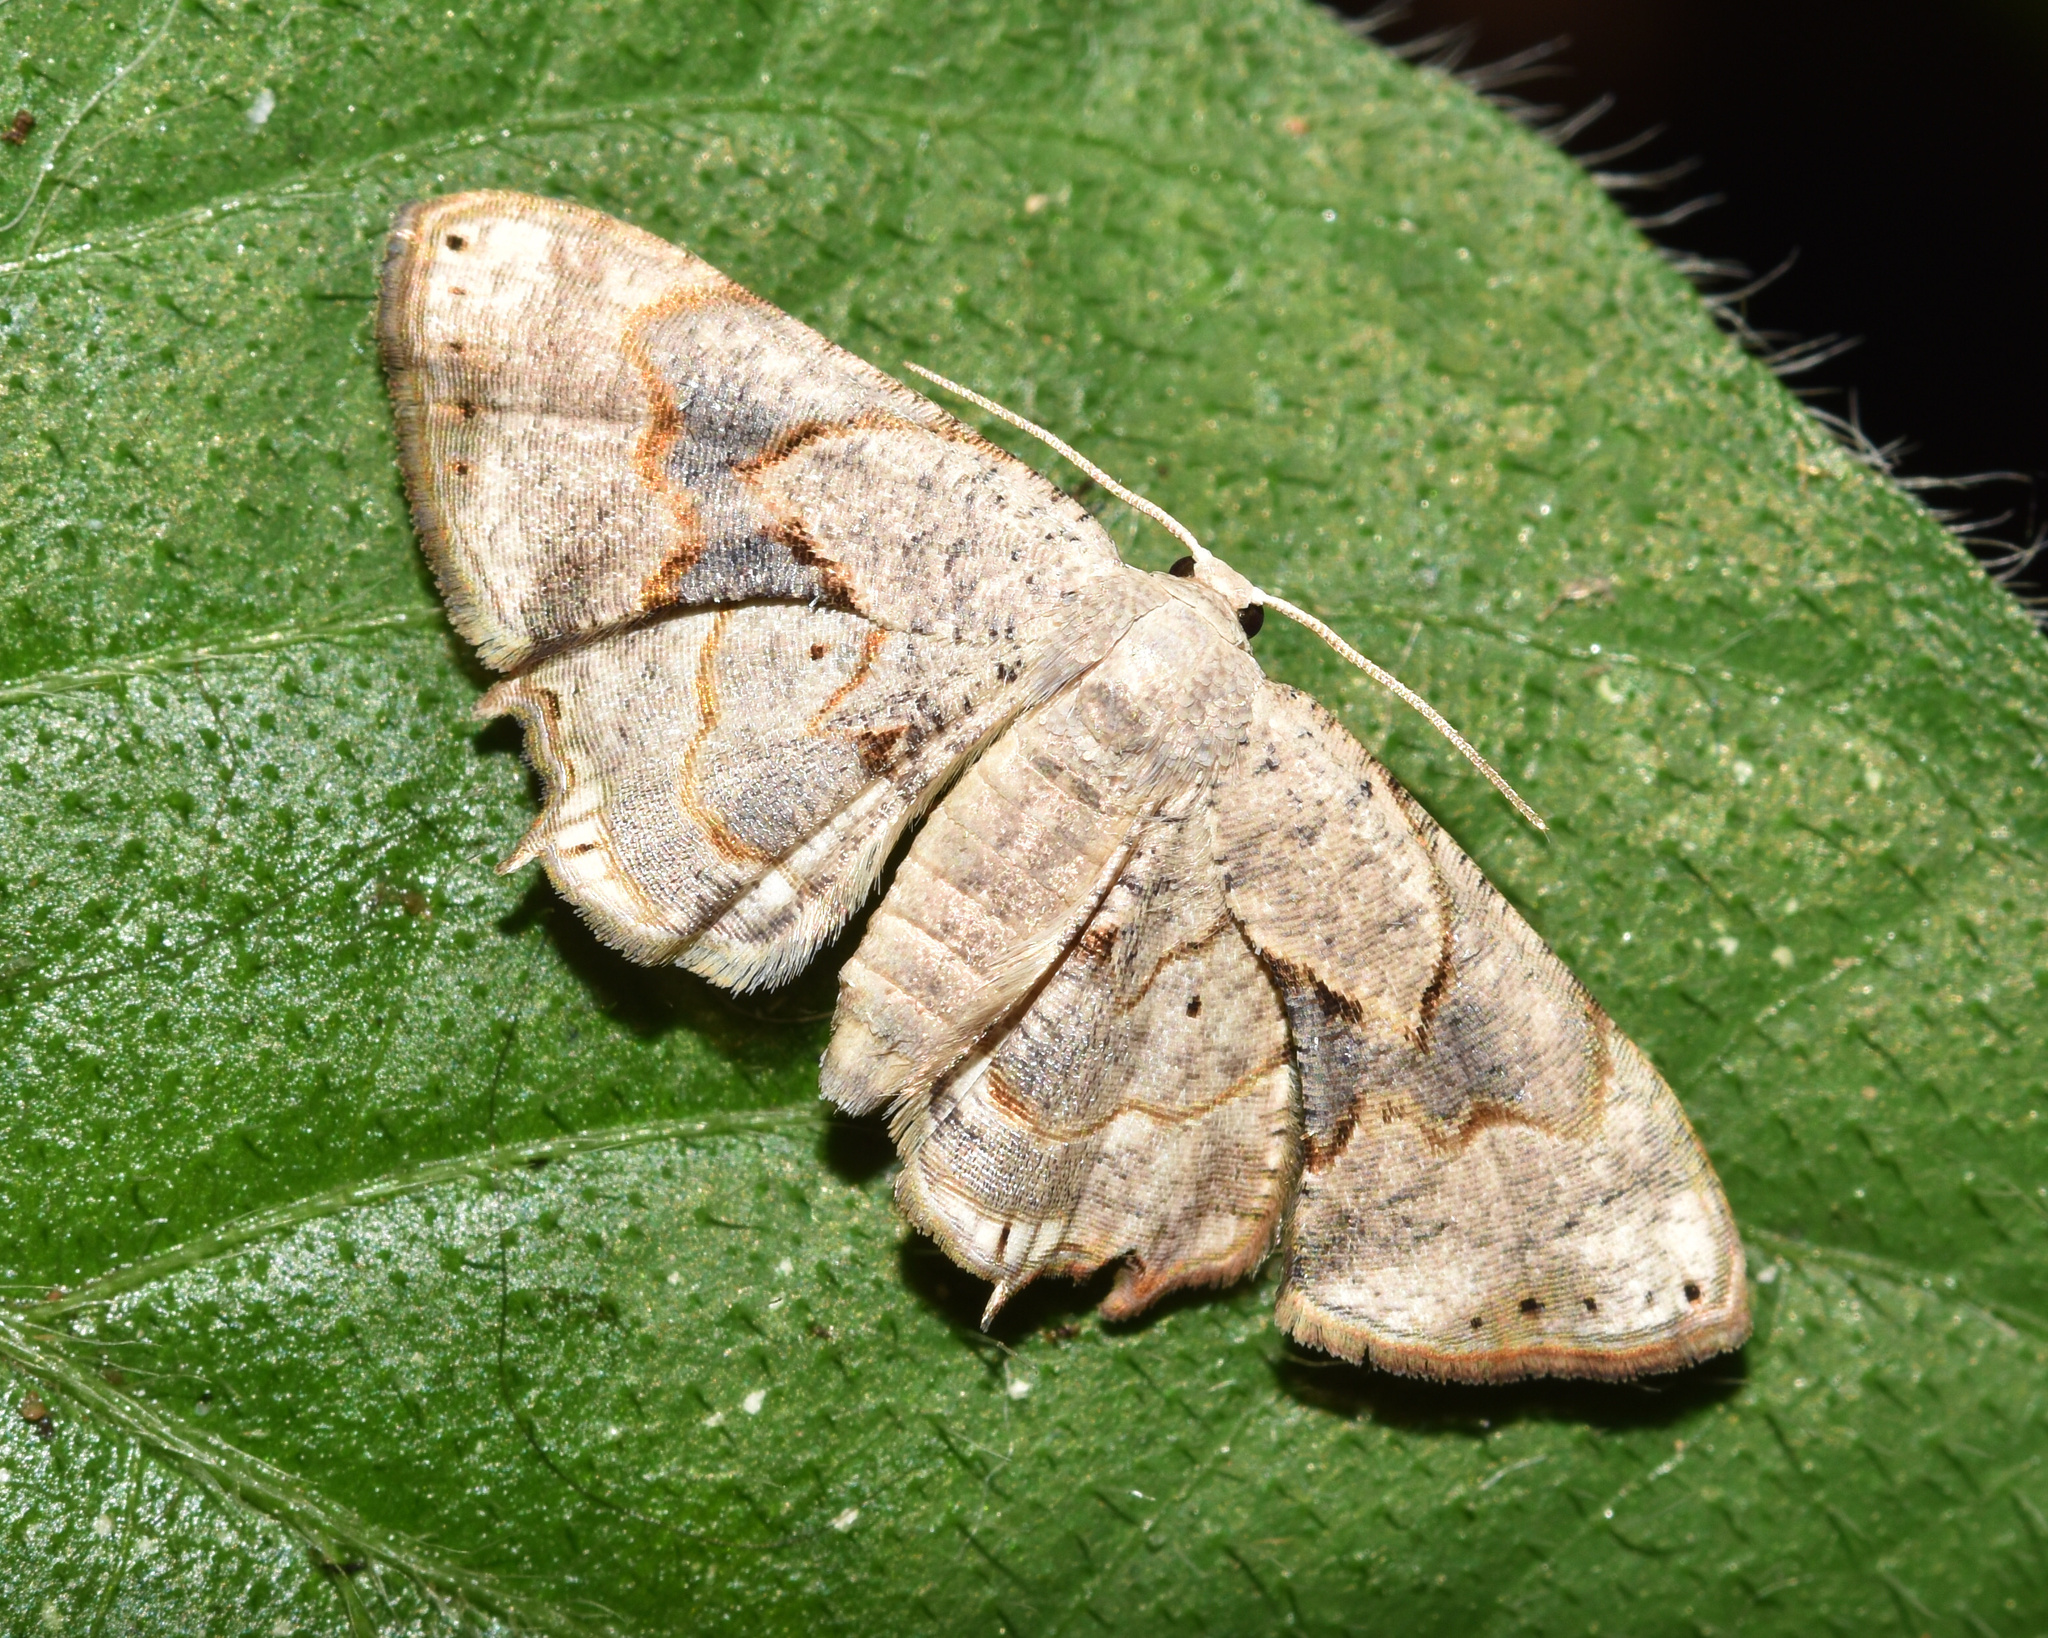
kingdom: Animalia
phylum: Arthropoda
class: Insecta
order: Lepidoptera
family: Uraniidae
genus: Epiplema
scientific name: Epiplema anomala
